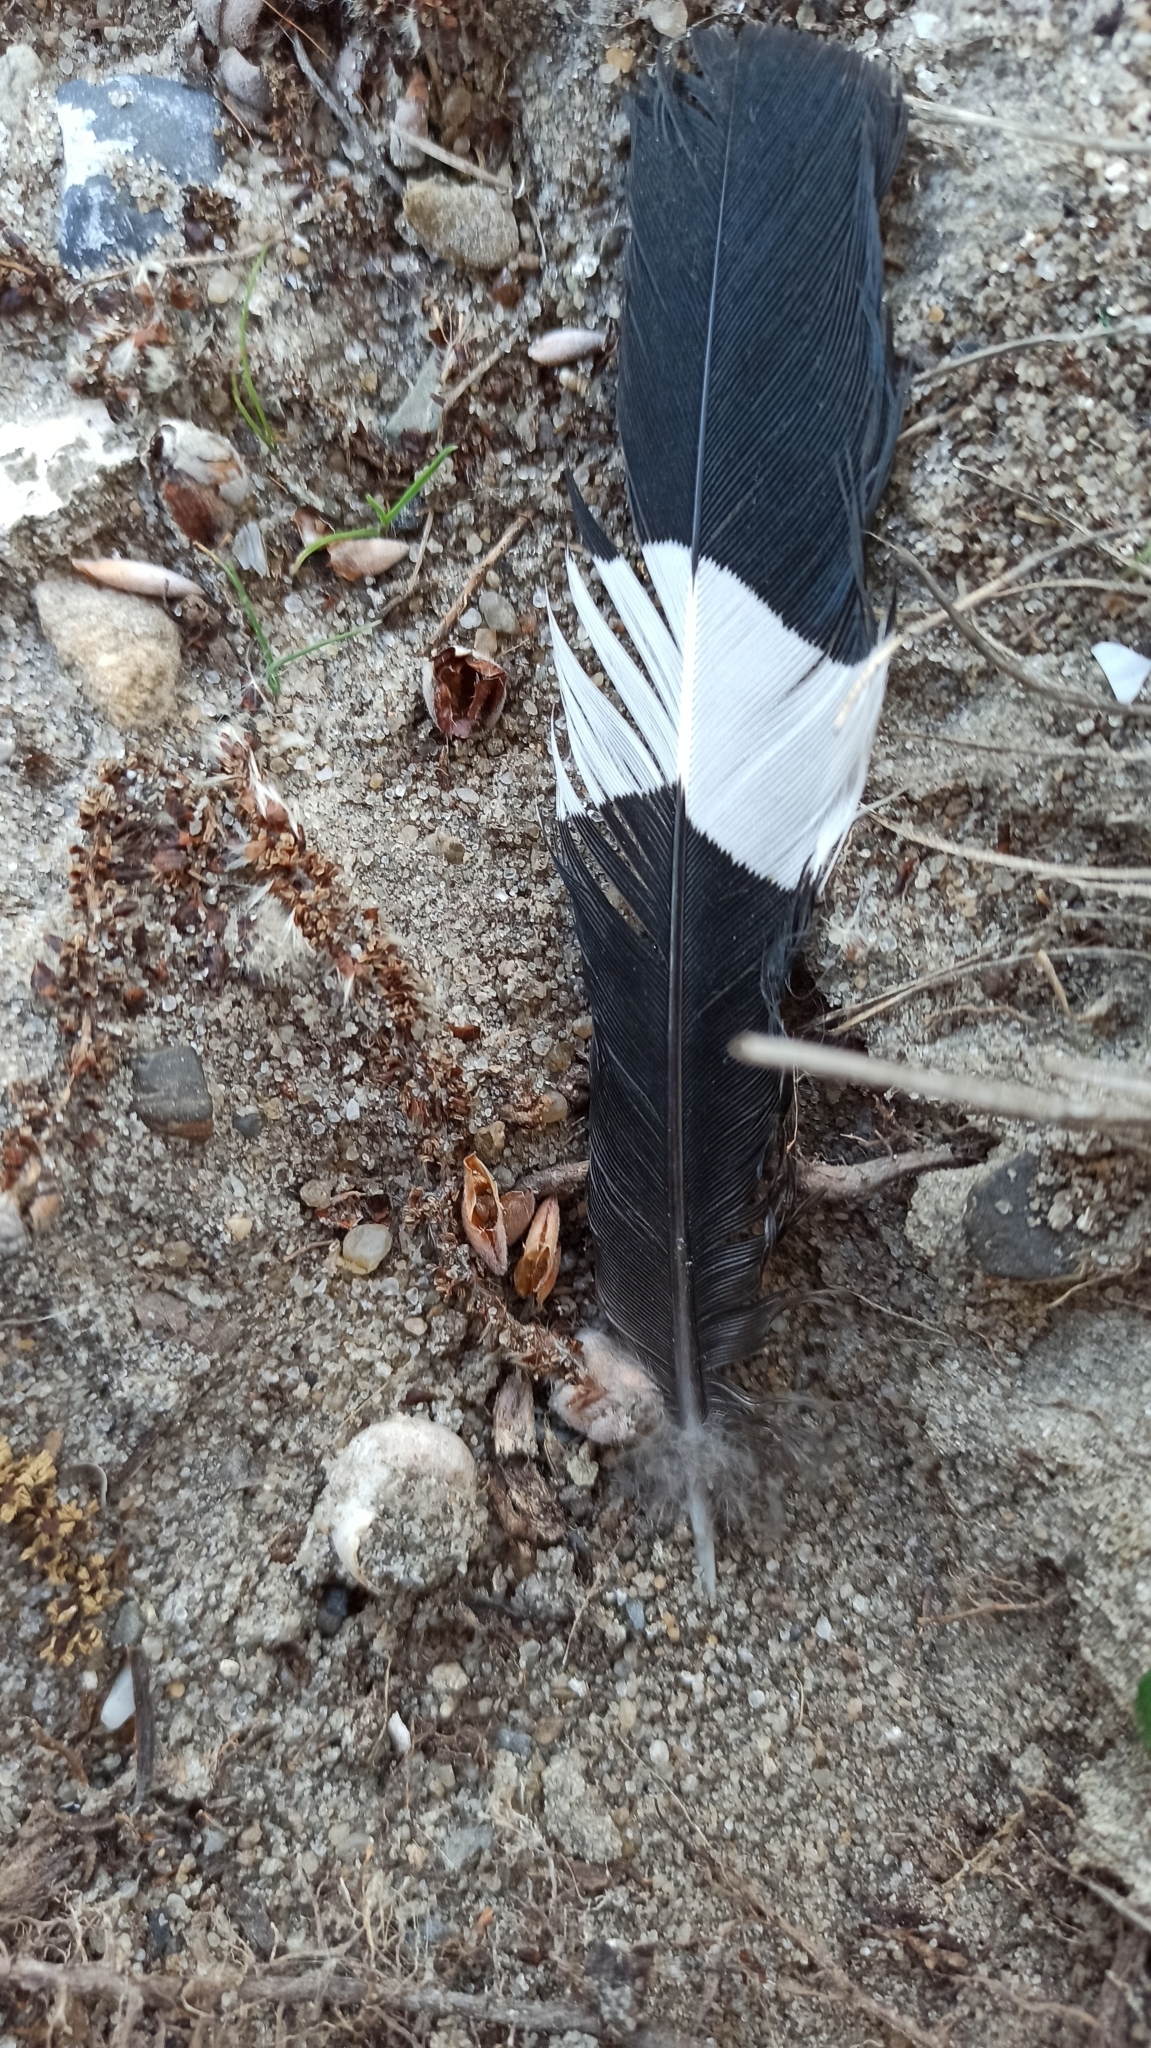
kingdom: Animalia
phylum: Chordata
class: Aves
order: Bucerotiformes
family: Upupidae
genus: Upupa
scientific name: Upupa epops
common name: Eurasian hoopoe
